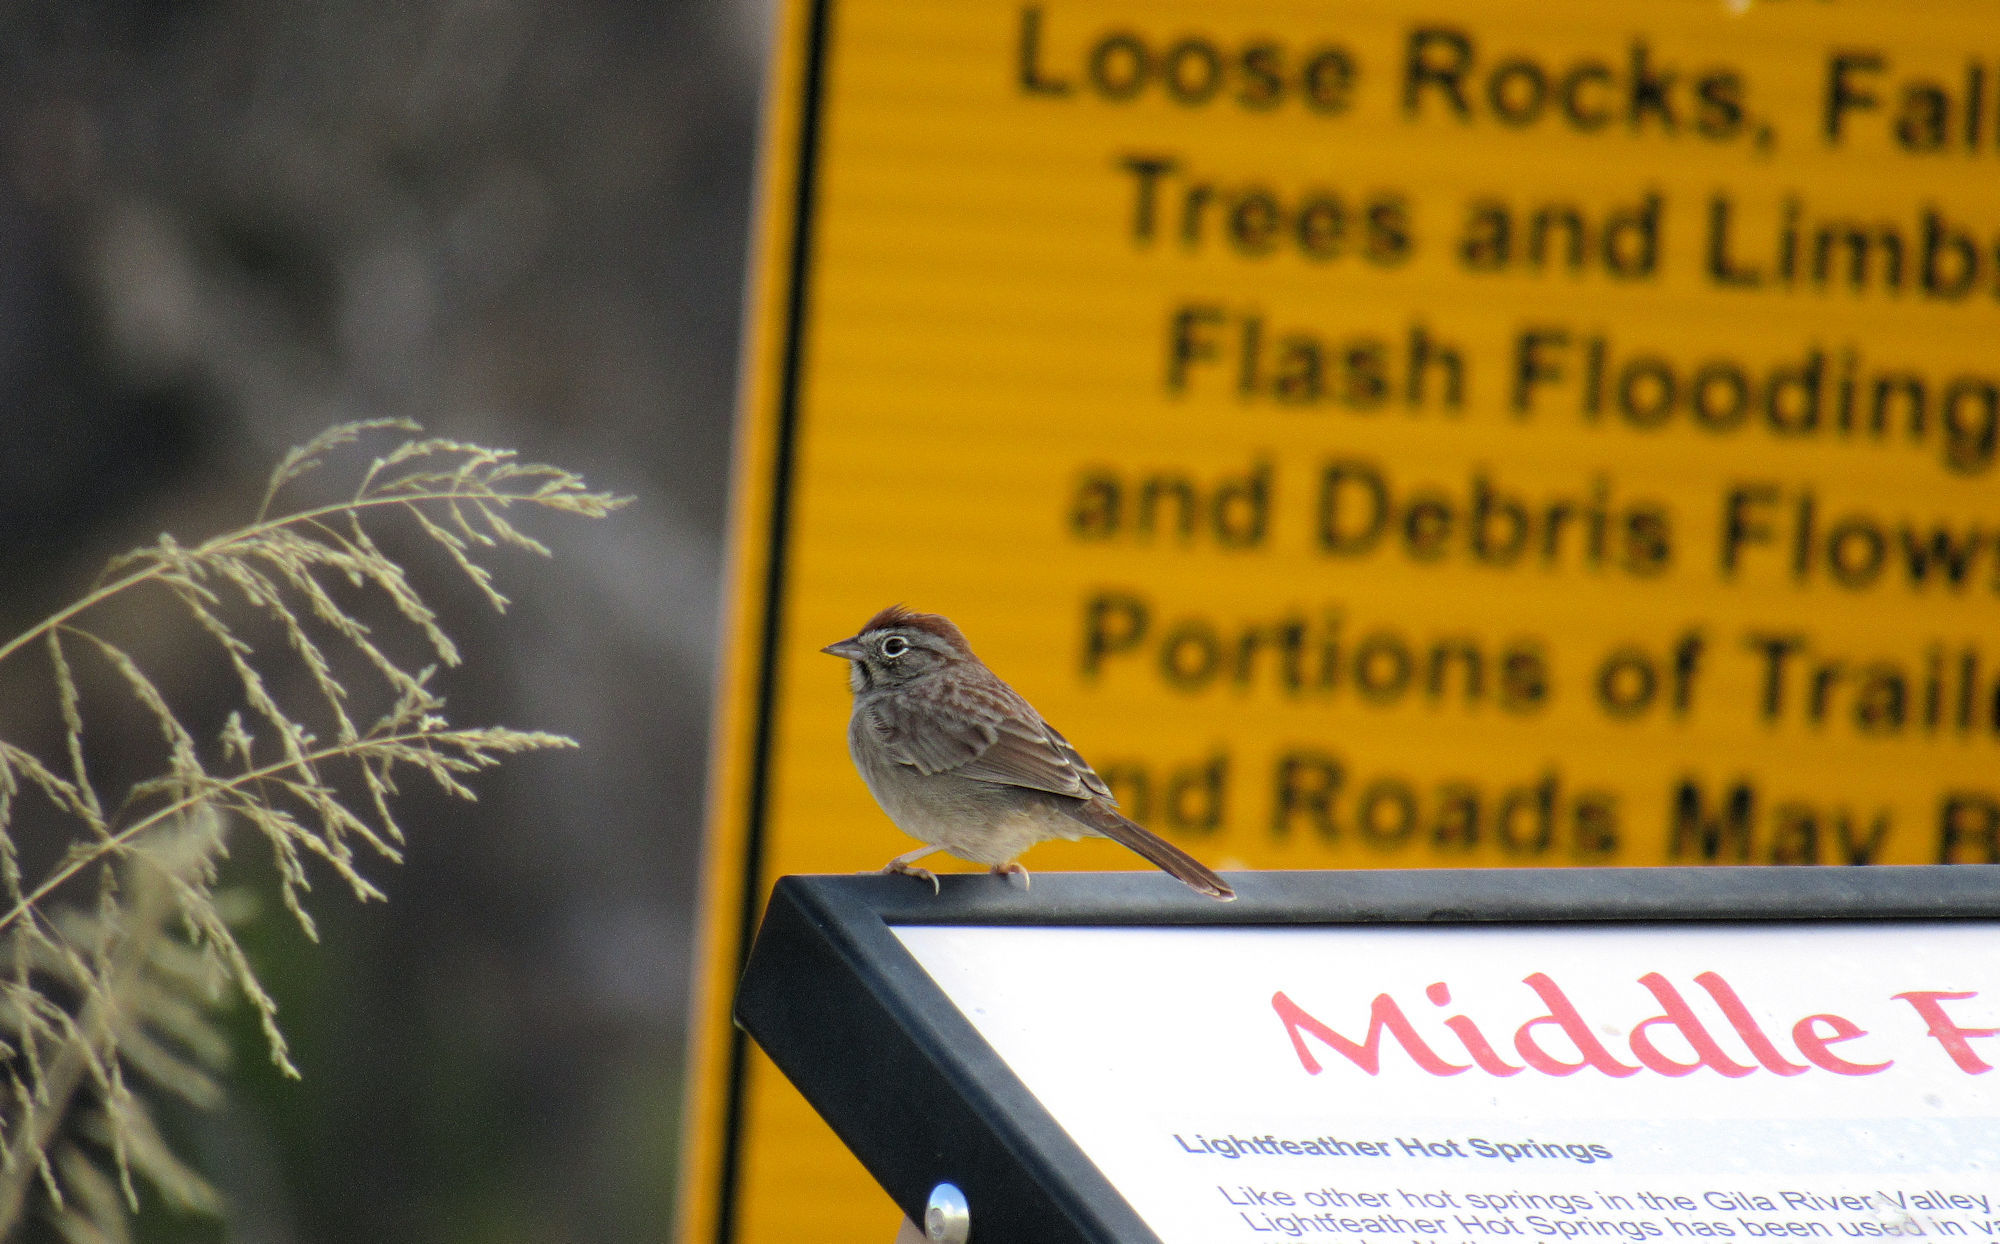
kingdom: Animalia
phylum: Chordata
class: Aves
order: Passeriformes
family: Passerellidae
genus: Aimophila
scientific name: Aimophila ruficeps
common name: Rufous-crowned sparrow
